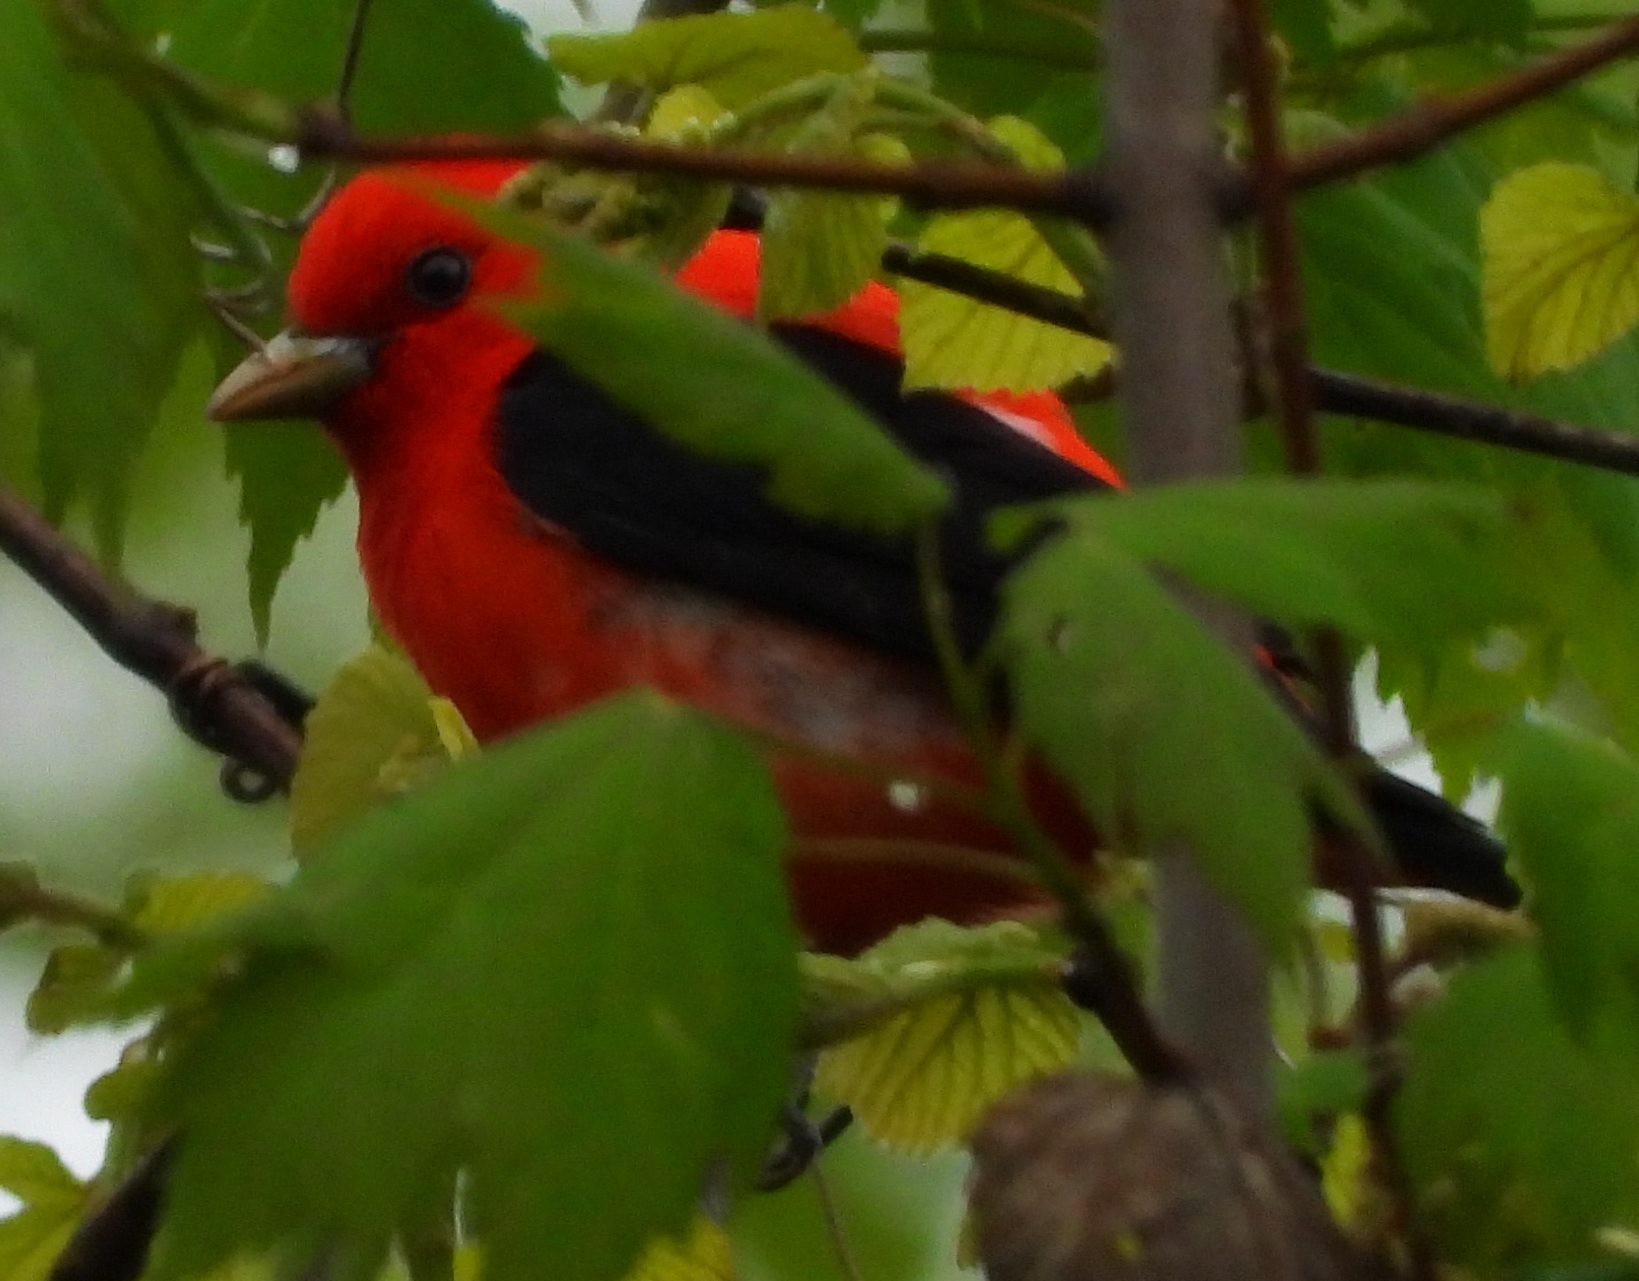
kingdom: Animalia
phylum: Chordata
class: Aves
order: Passeriformes
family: Cardinalidae
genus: Piranga
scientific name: Piranga olivacea
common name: Scarlet tanager
